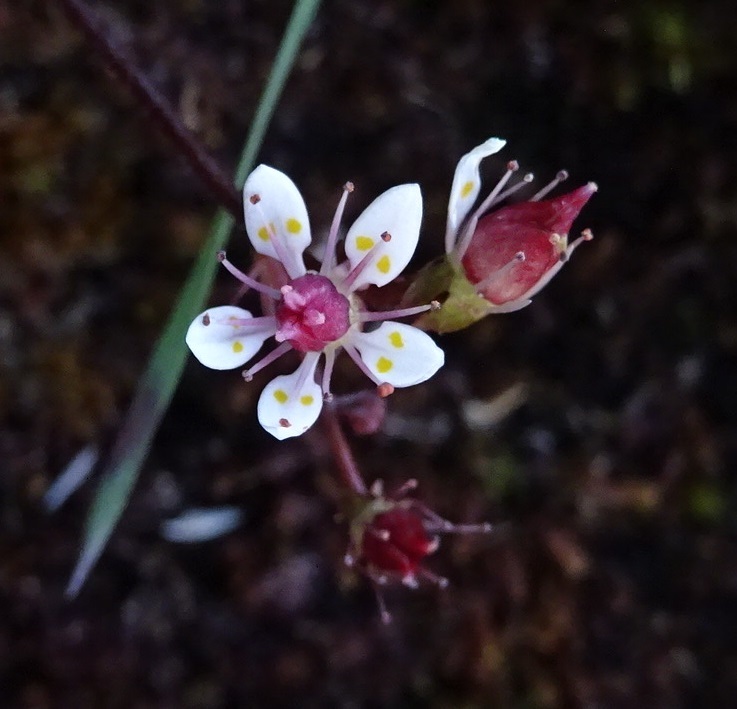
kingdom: Plantae
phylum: Tracheophyta
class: Magnoliopsida
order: Saxifragales
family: Saxifragaceae
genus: Micranthes
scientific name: Micranthes stellaris
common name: Starry saxifrage
